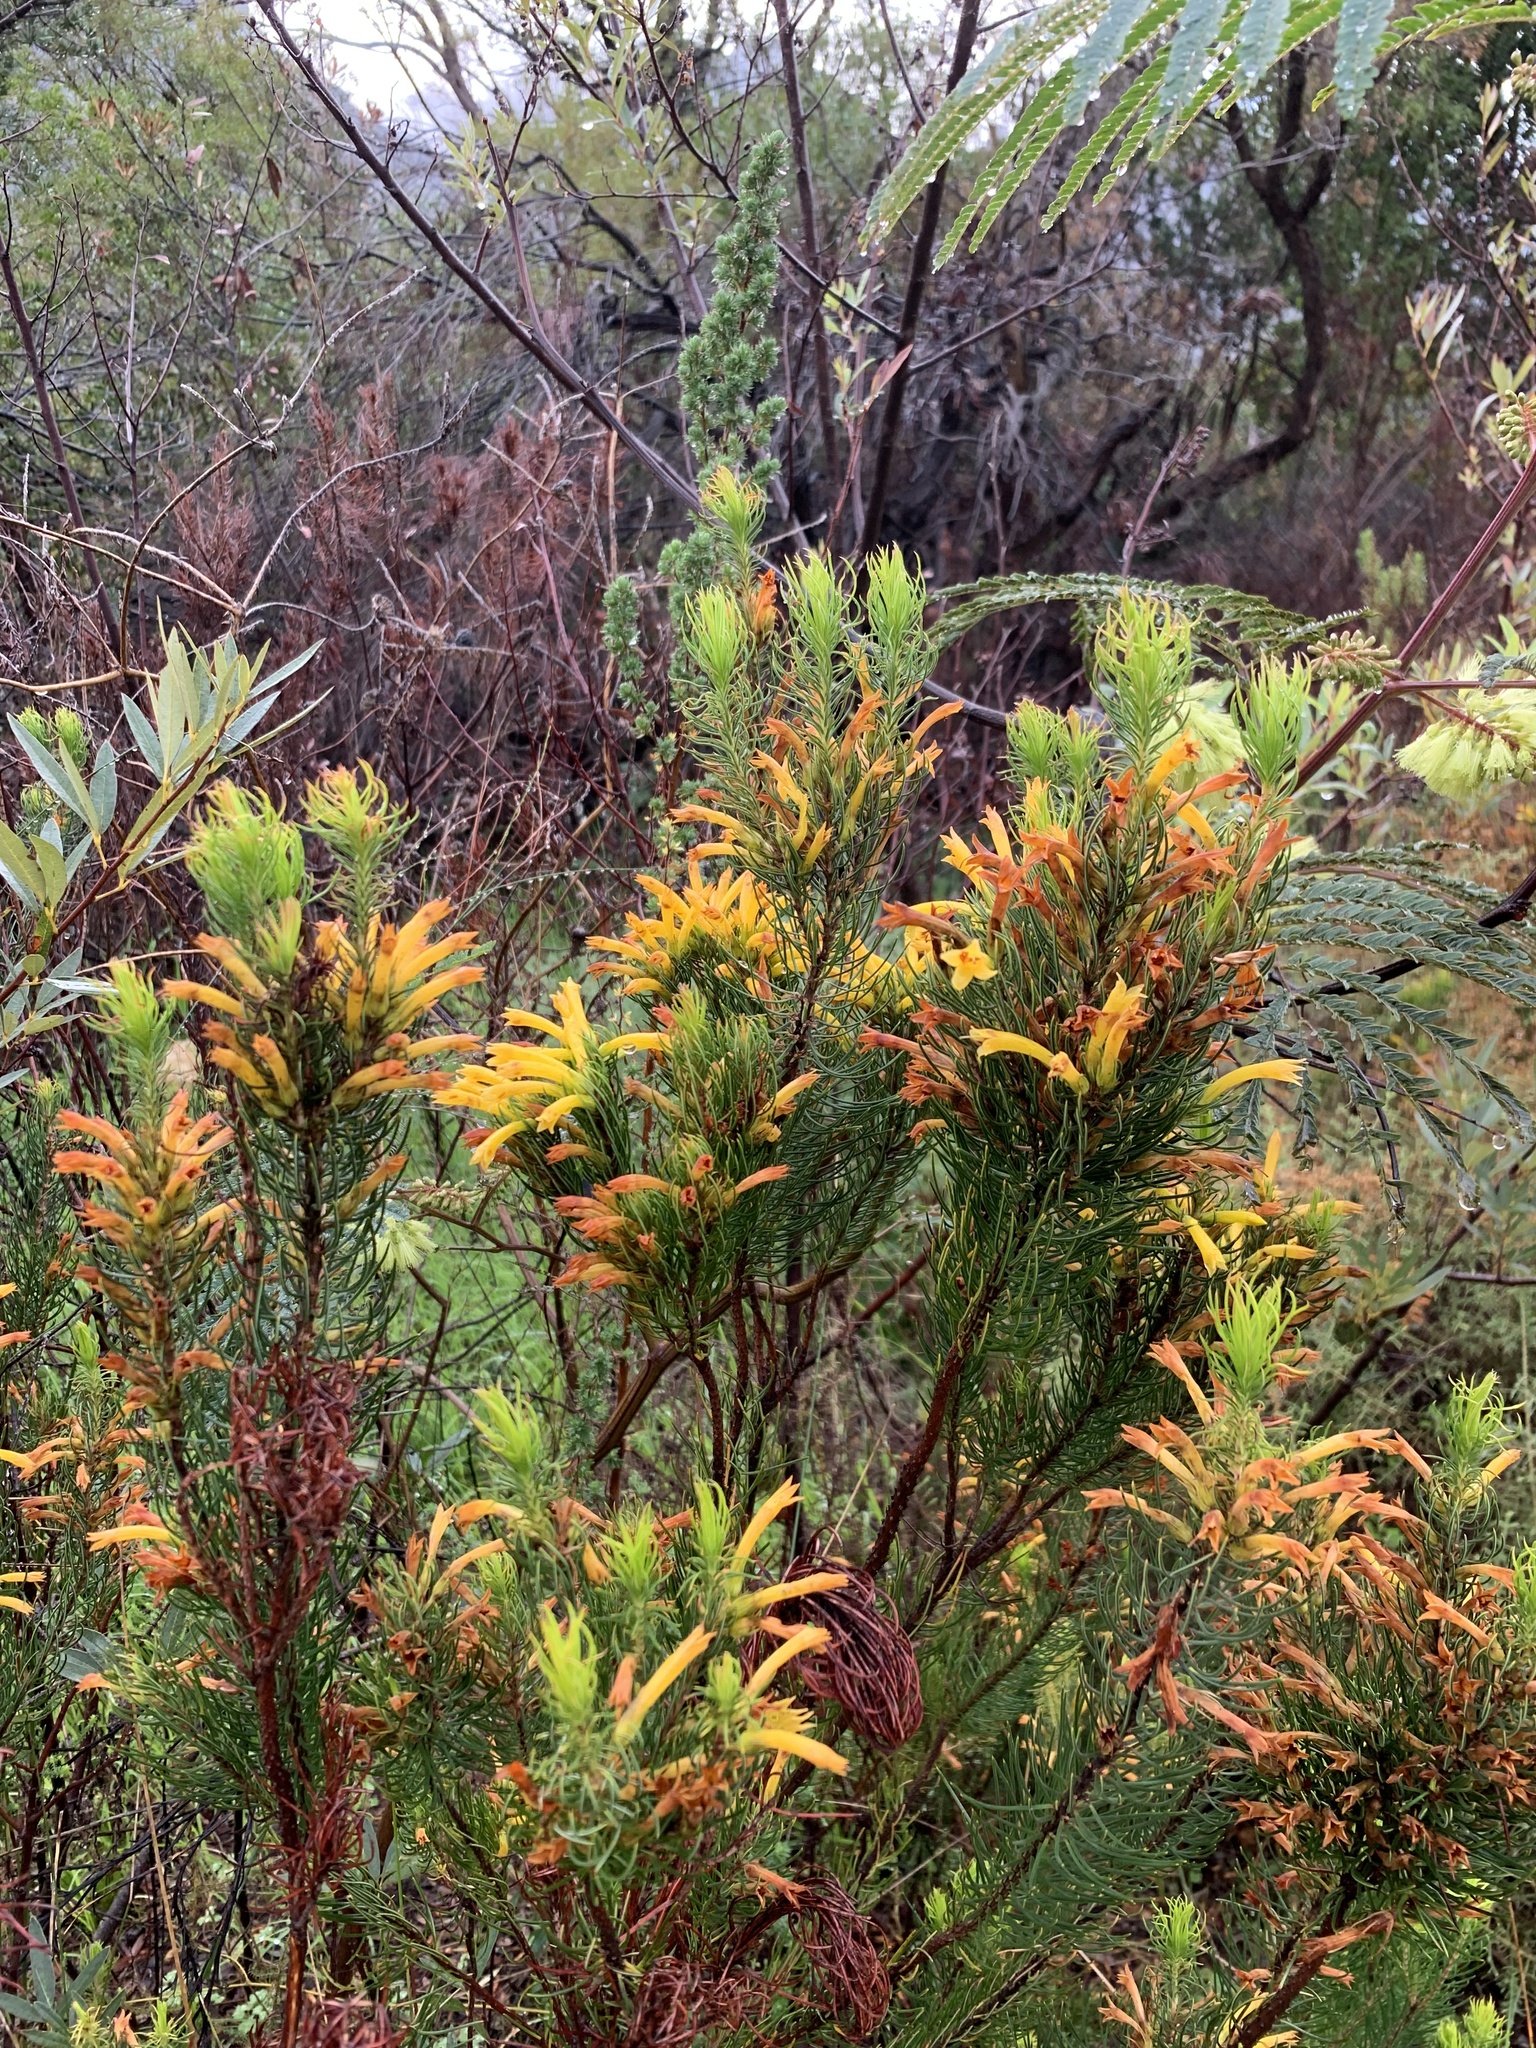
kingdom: Plantae
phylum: Tracheophyta
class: Magnoliopsida
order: Ericales
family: Ericaceae
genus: Erica
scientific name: Erica grandiflora
